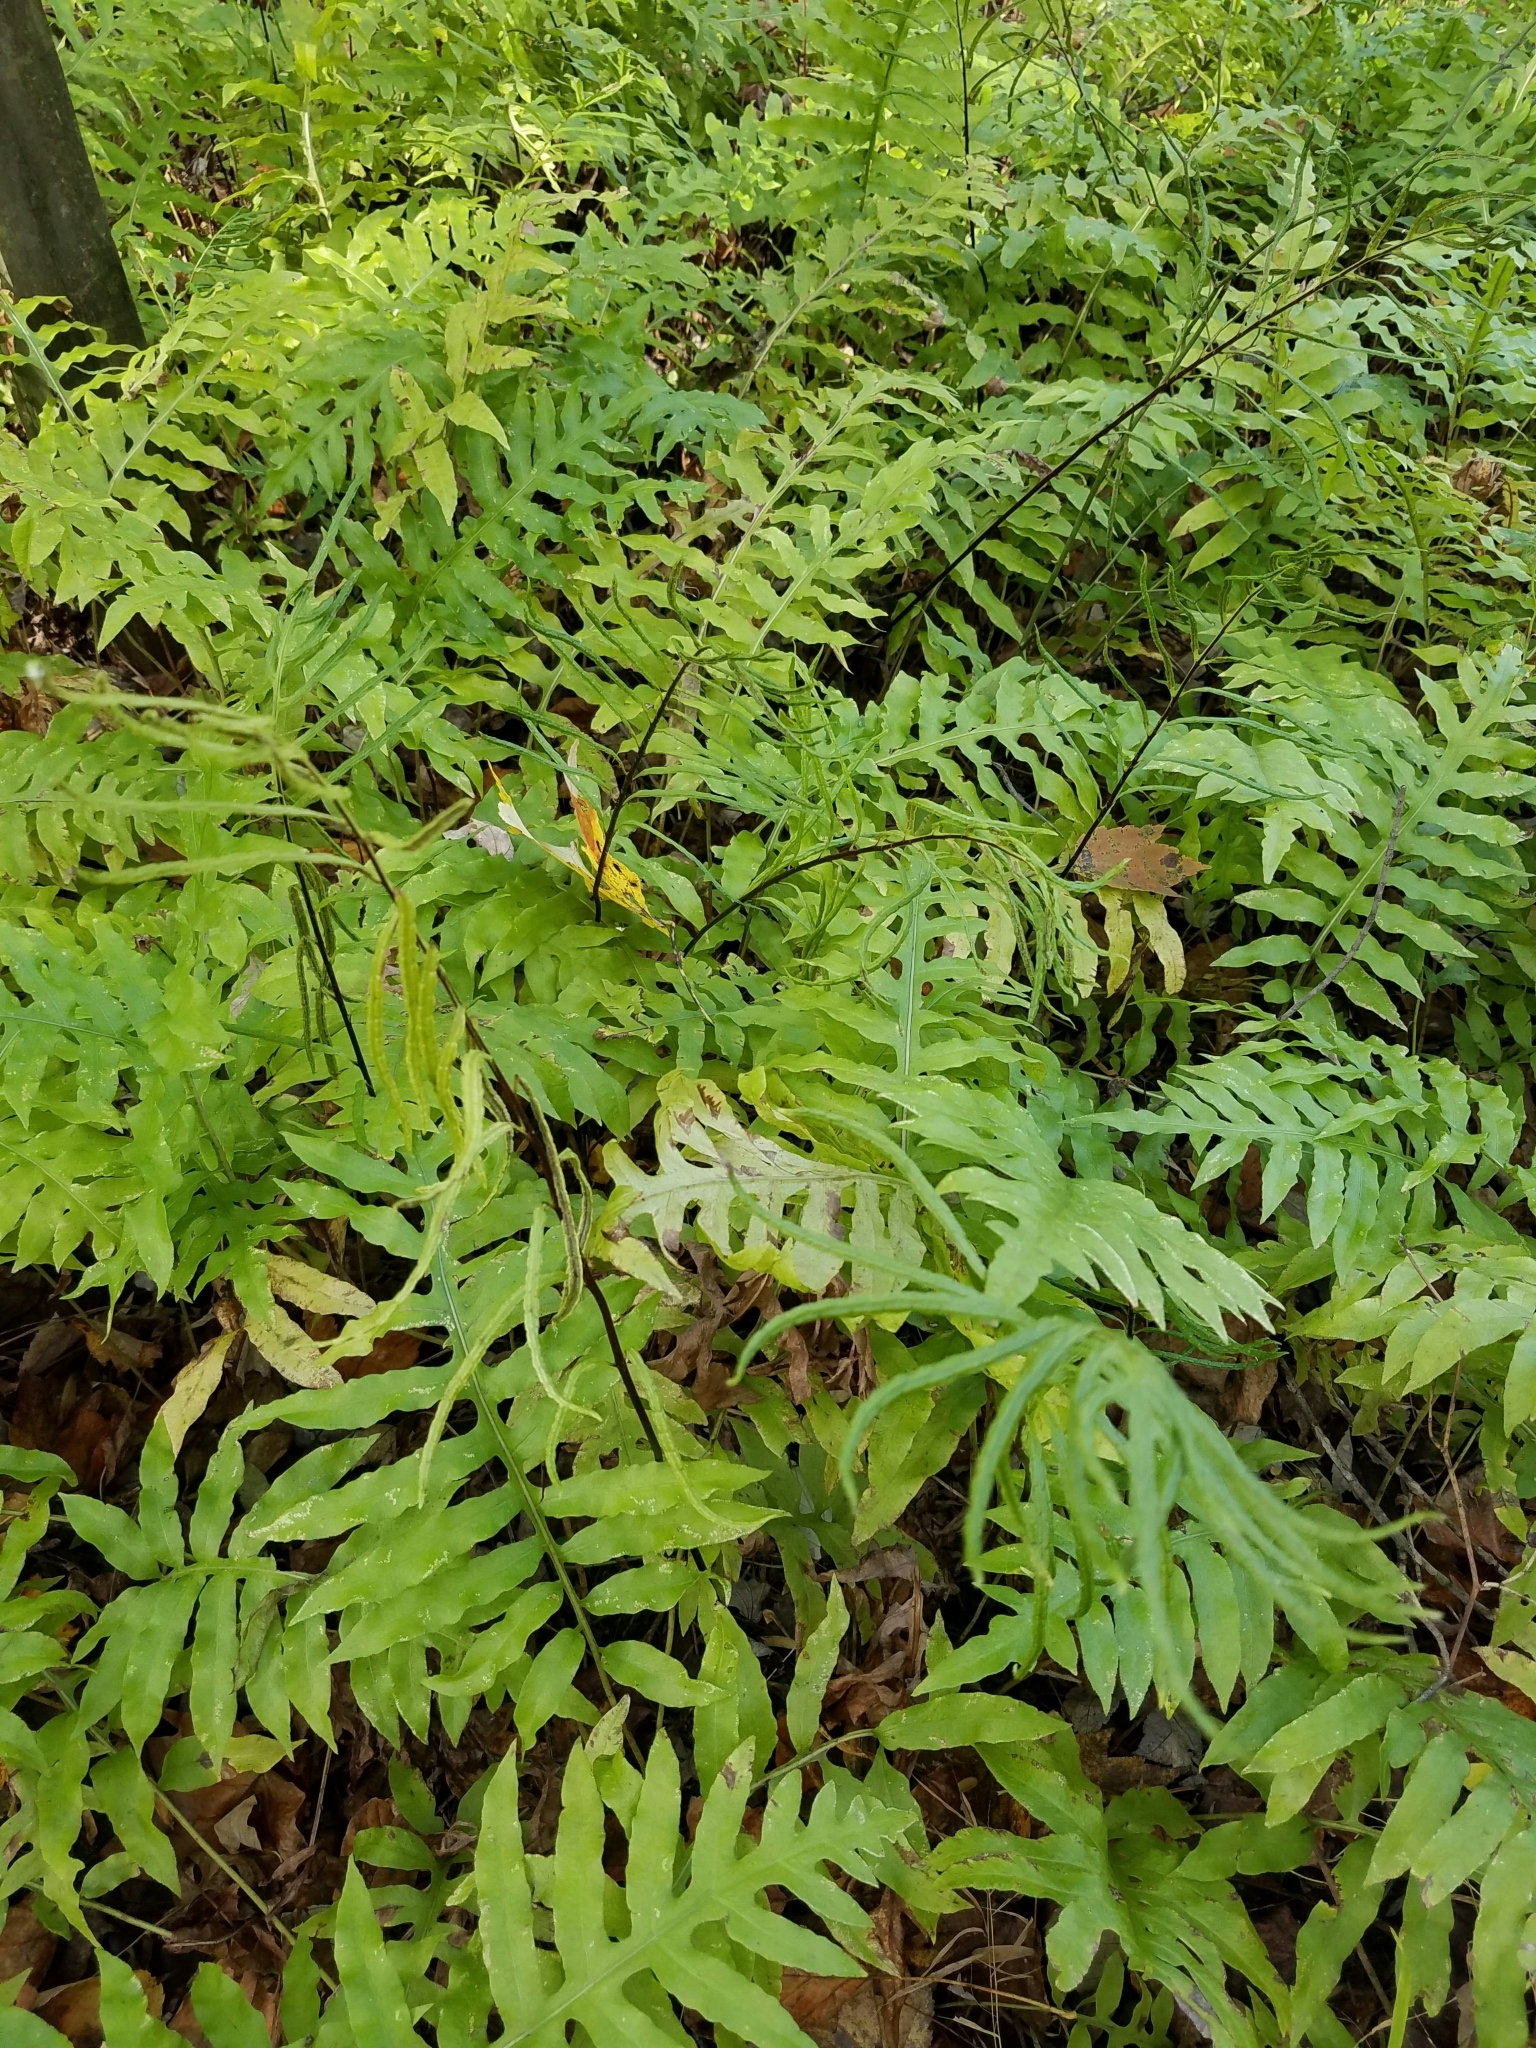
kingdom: Plantae
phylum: Tracheophyta
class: Polypodiopsida
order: Polypodiales
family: Blechnaceae
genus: Lorinseria
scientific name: Lorinseria areolata
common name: Dwarf chain fern
